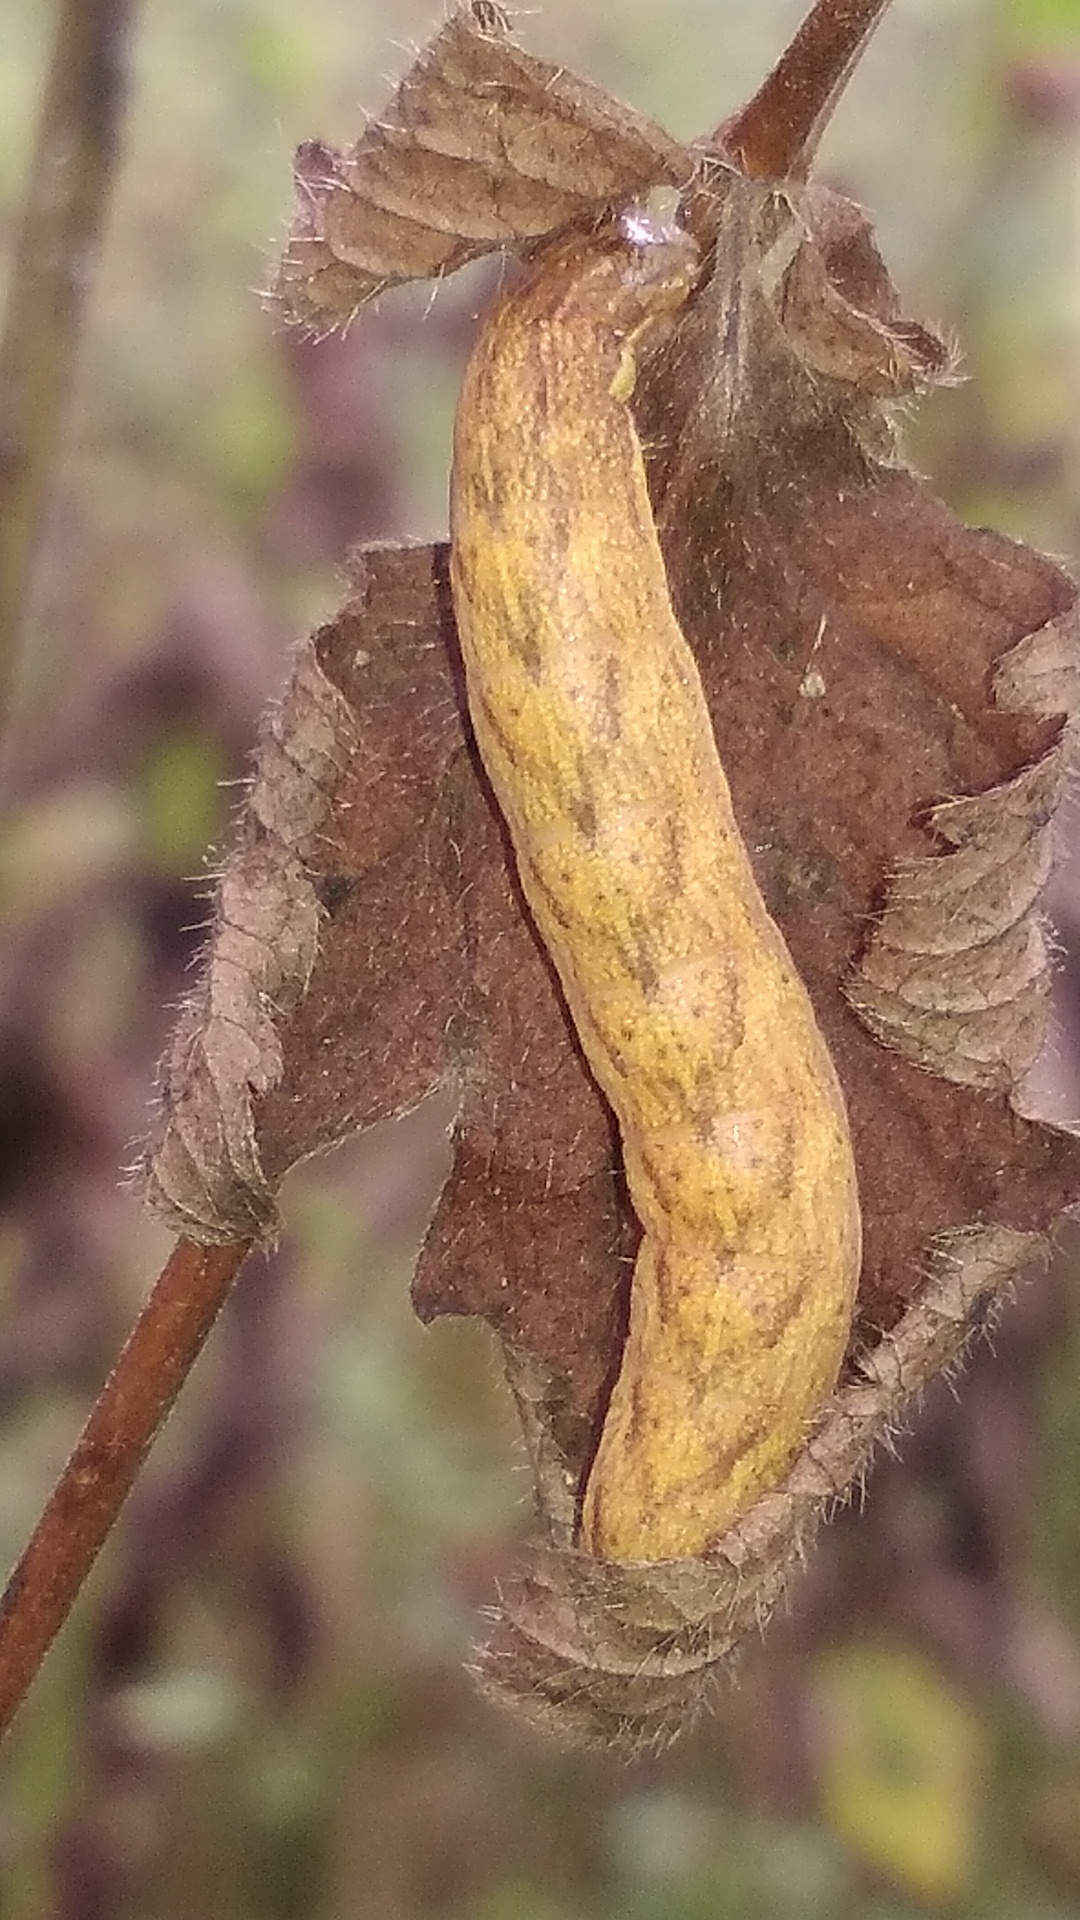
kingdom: Animalia
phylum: Arthropoda
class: Insecta
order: Lepidoptera
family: Noctuidae
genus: Lacanobia
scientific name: Lacanobia contigua
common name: Beautiful brocade
